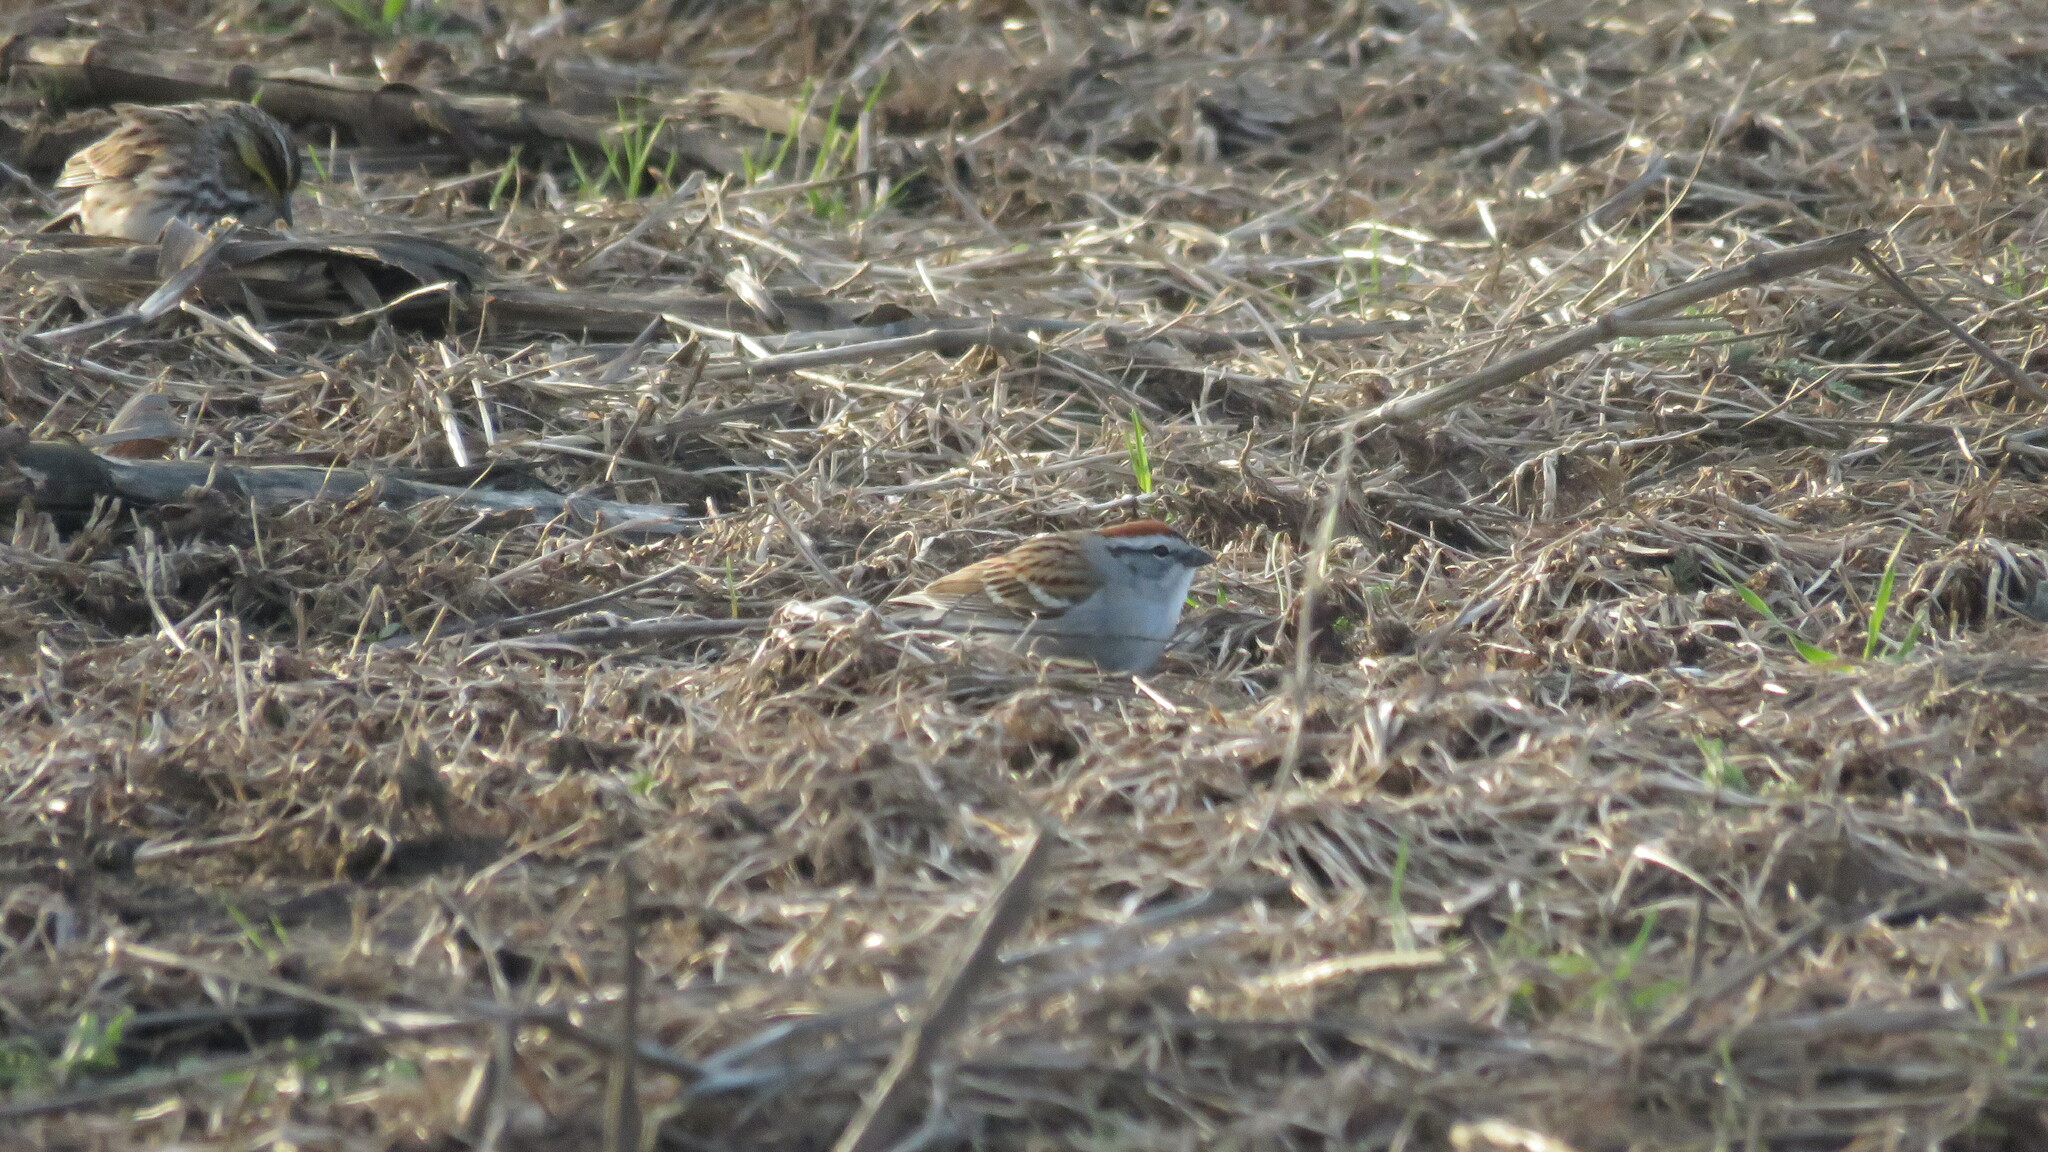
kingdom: Animalia
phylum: Chordata
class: Aves
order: Passeriformes
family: Passerellidae
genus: Spizella
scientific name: Spizella passerina
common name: Chipping sparrow
